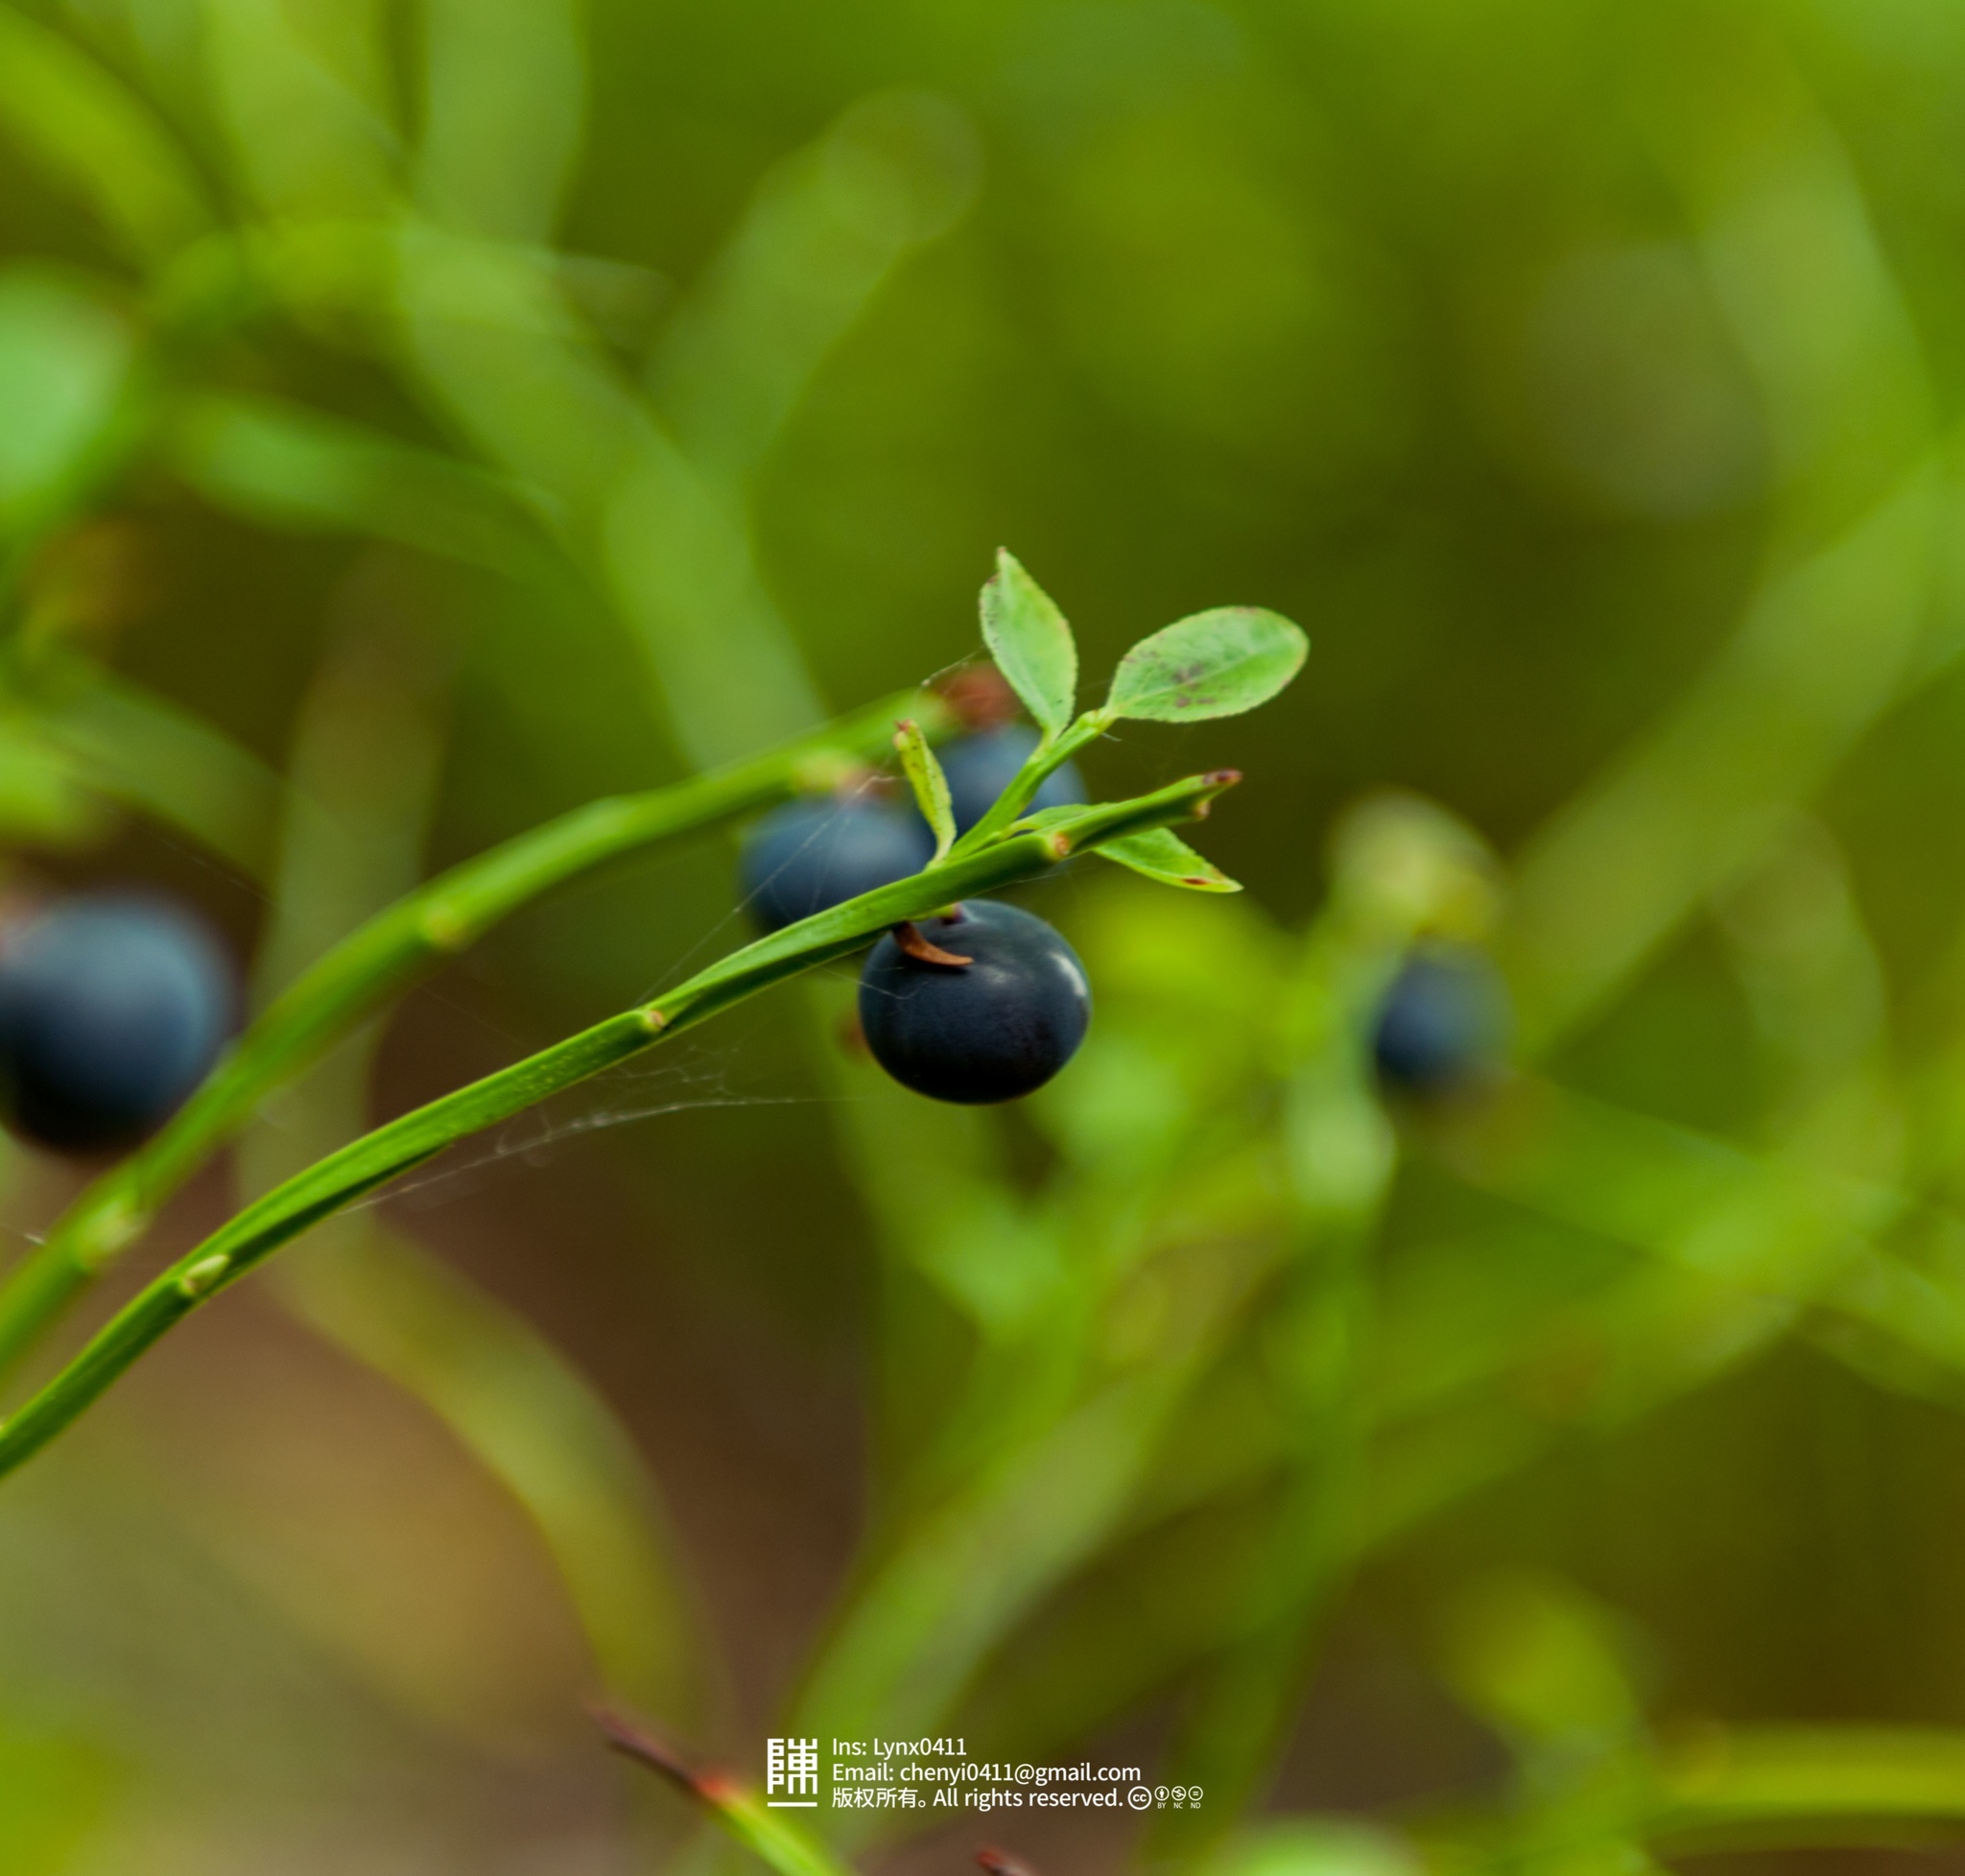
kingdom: Plantae
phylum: Tracheophyta
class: Magnoliopsida
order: Ericales
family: Ericaceae
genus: Vaccinium
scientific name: Vaccinium myrtillus
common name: Bilberry
